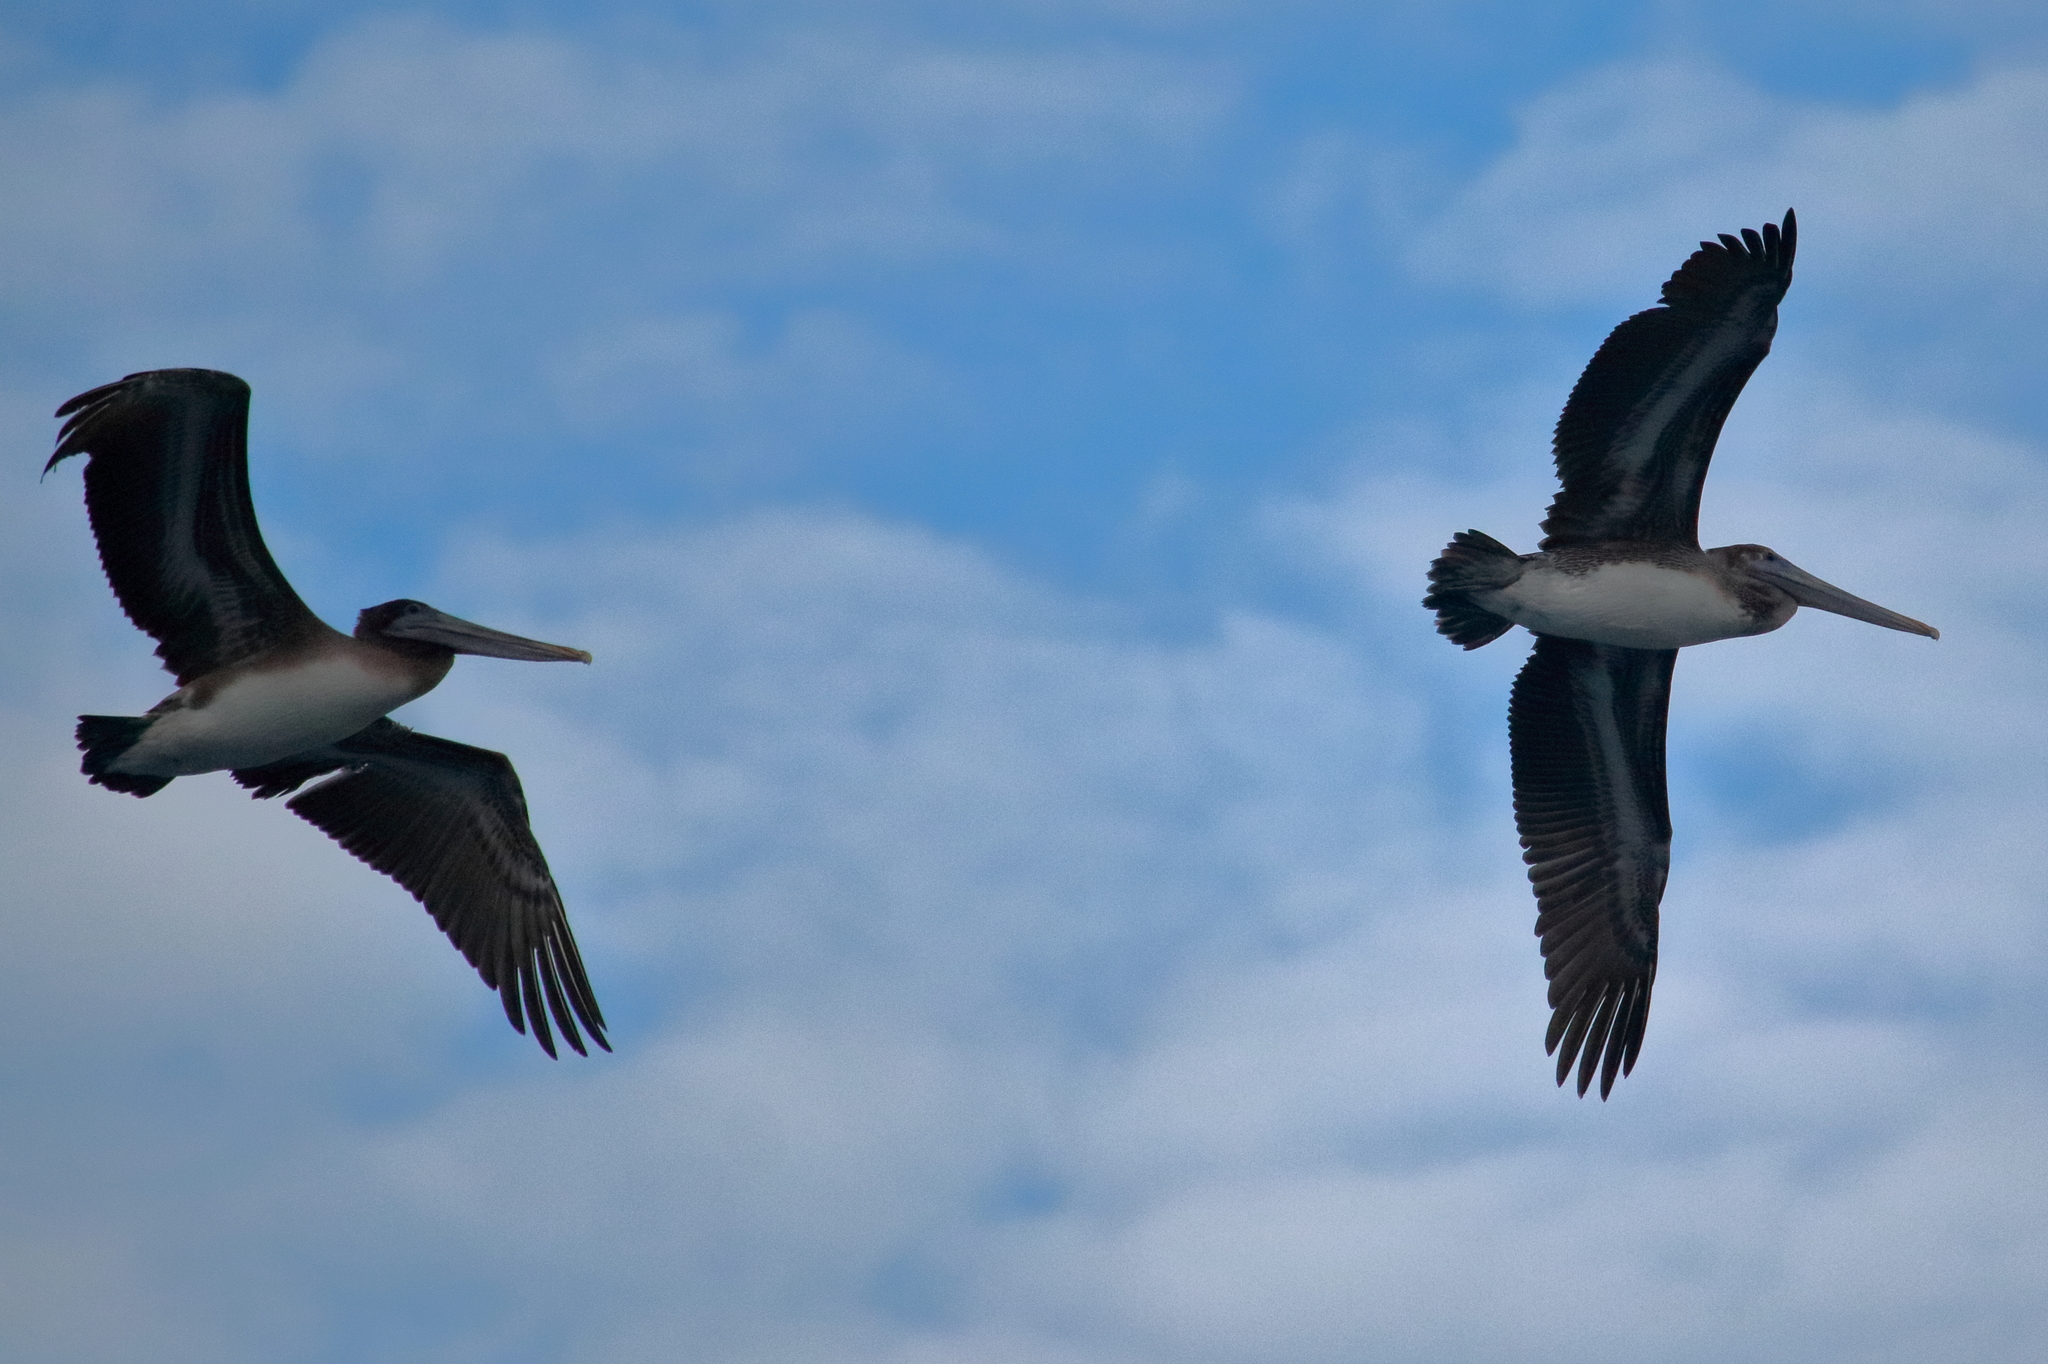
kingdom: Animalia
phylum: Chordata
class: Aves
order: Pelecaniformes
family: Pelecanidae
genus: Pelecanus
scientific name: Pelecanus occidentalis
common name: Brown pelican
